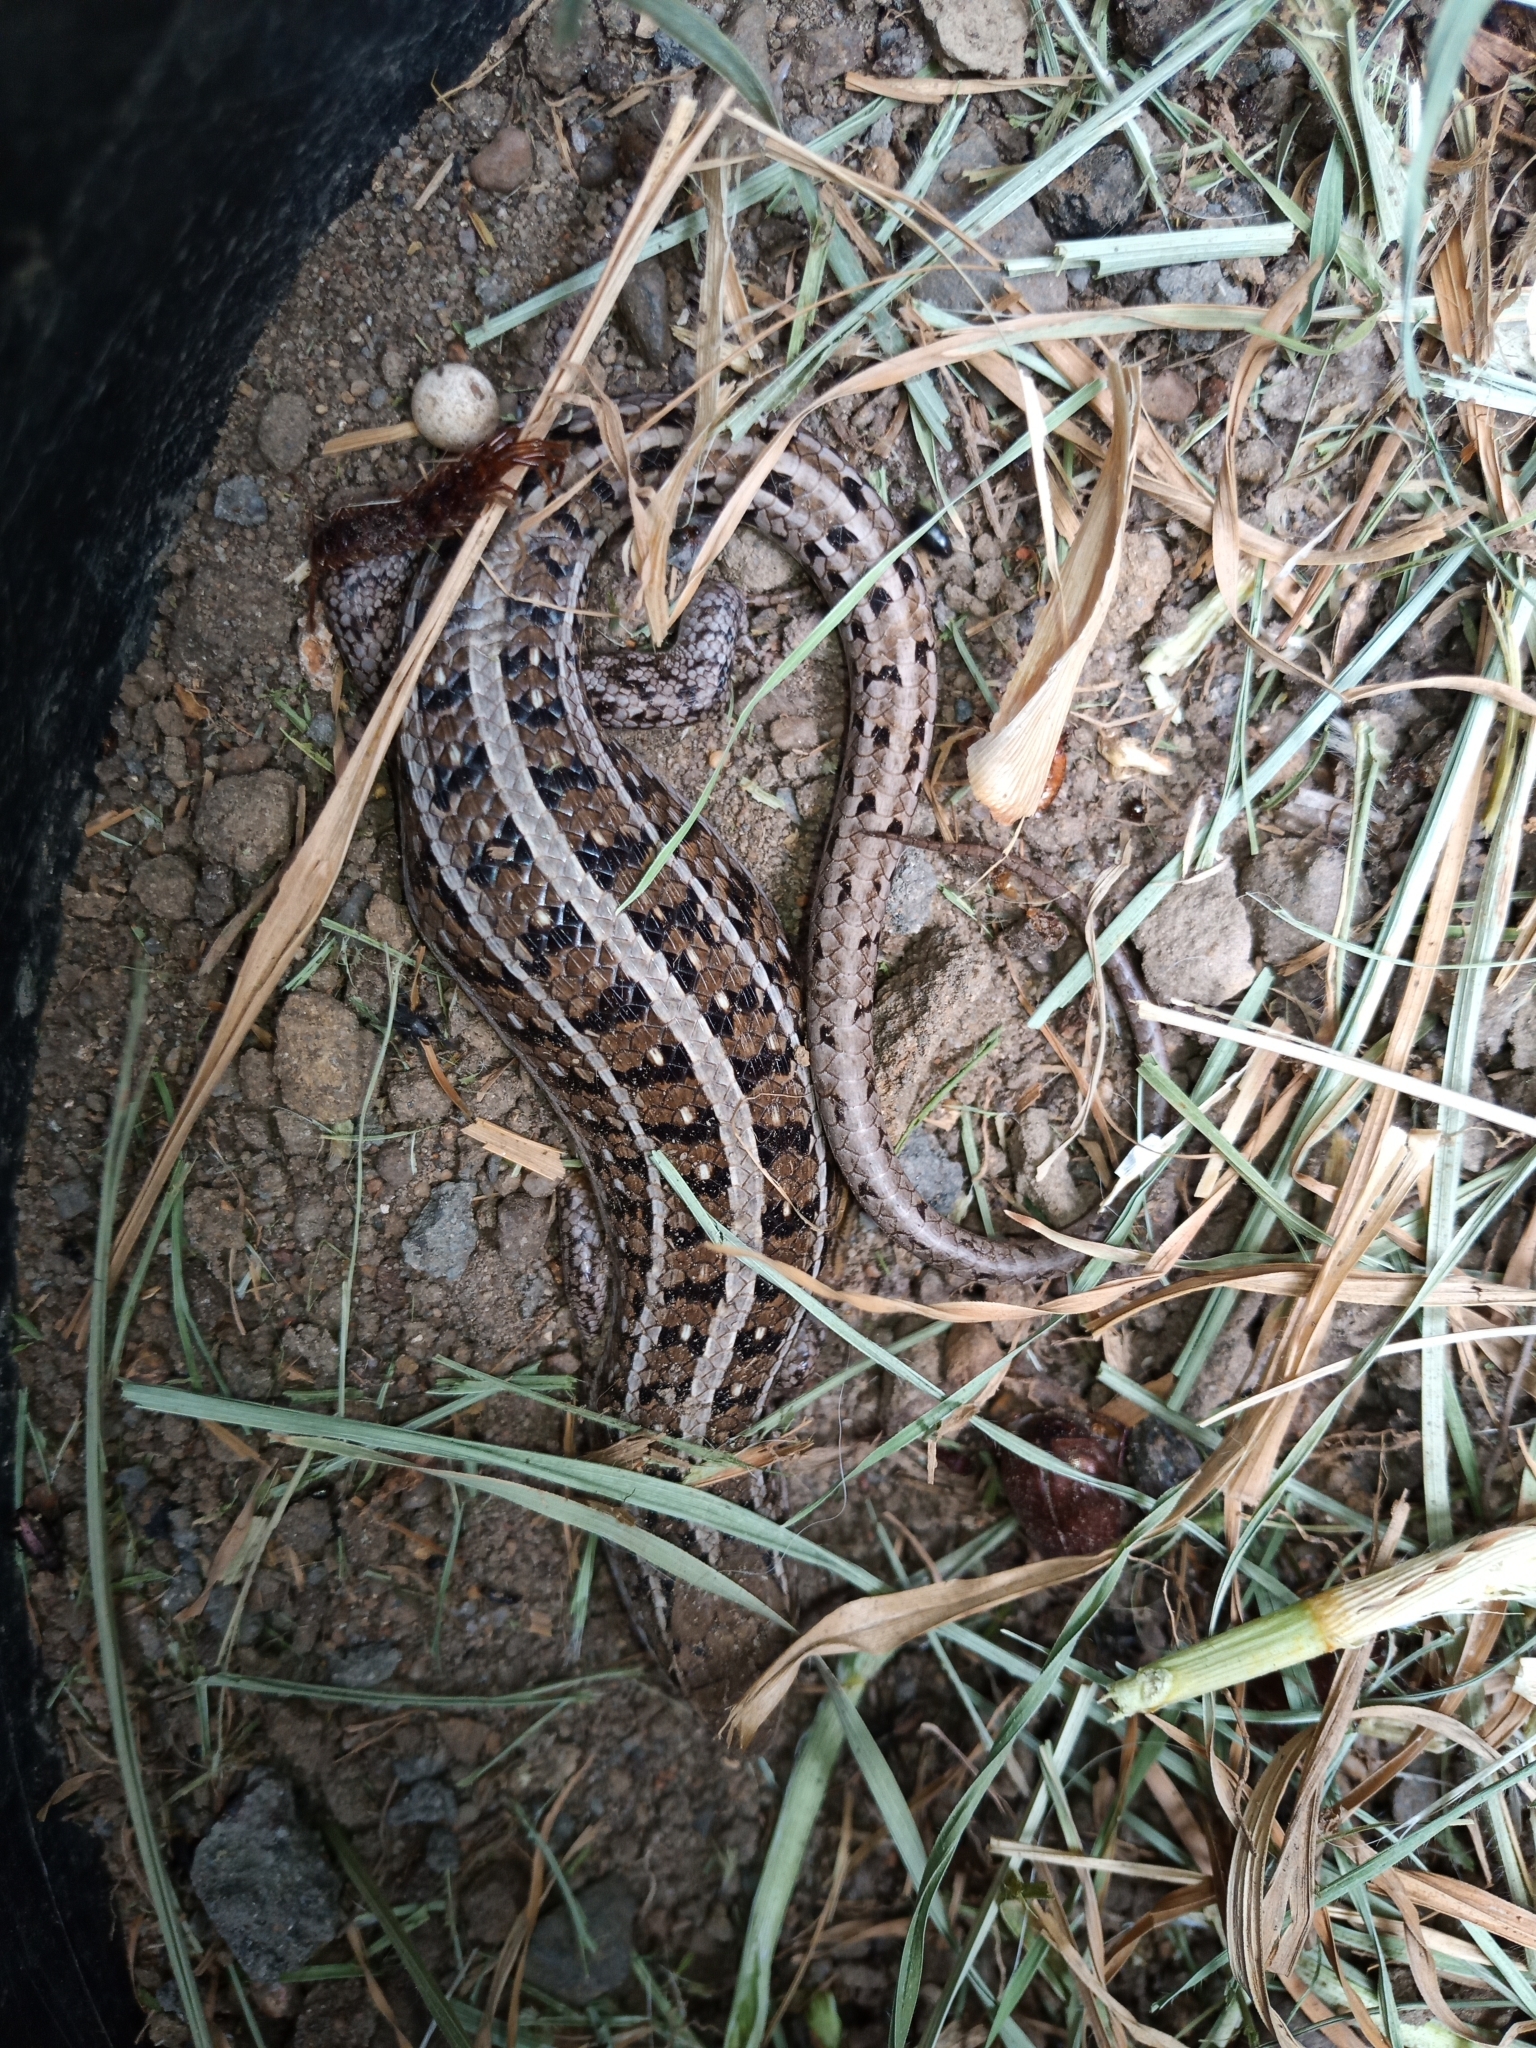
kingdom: Animalia
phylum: Chordata
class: Squamata
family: Scincidae
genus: Trachylepis
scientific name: Trachylepis capensis
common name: Cape skink
